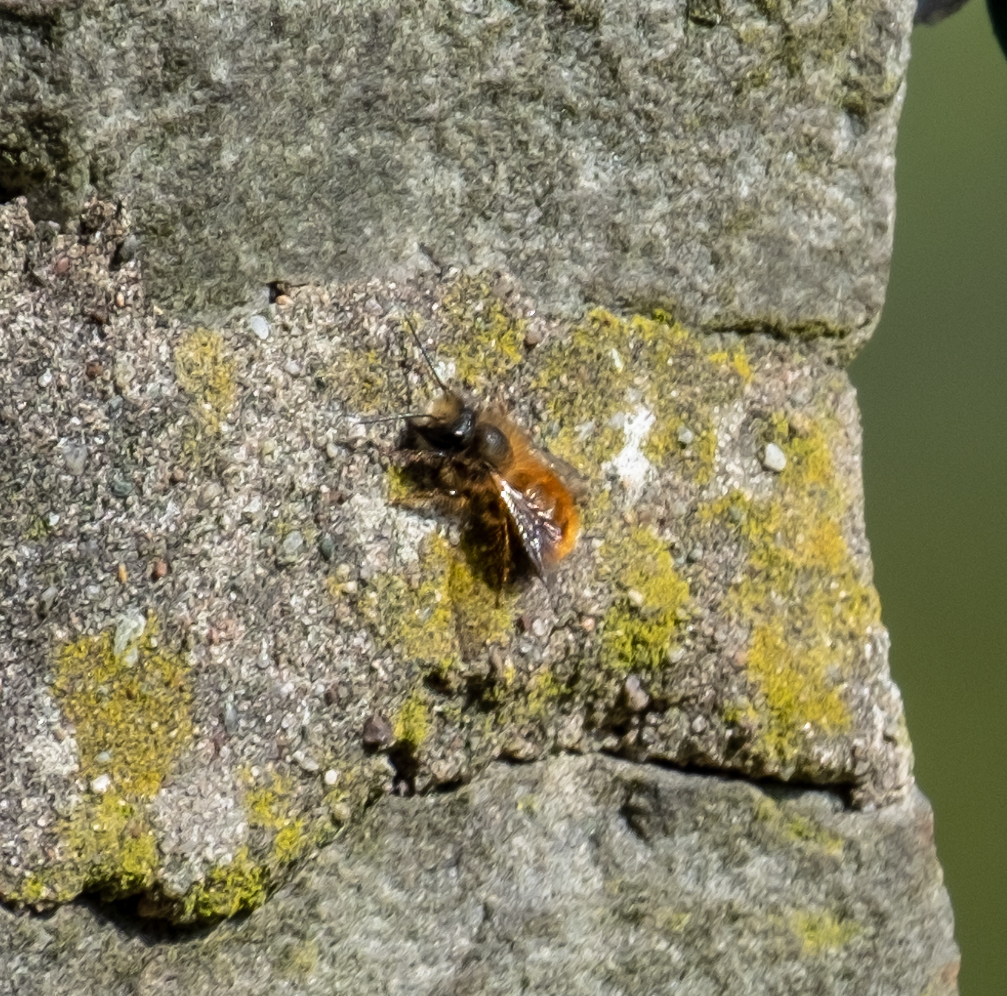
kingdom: Animalia
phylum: Arthropoda
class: Insecta
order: Hymenoptera
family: Megachilidae
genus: Osmia
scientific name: Osmia bicornis
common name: Red mason bee
